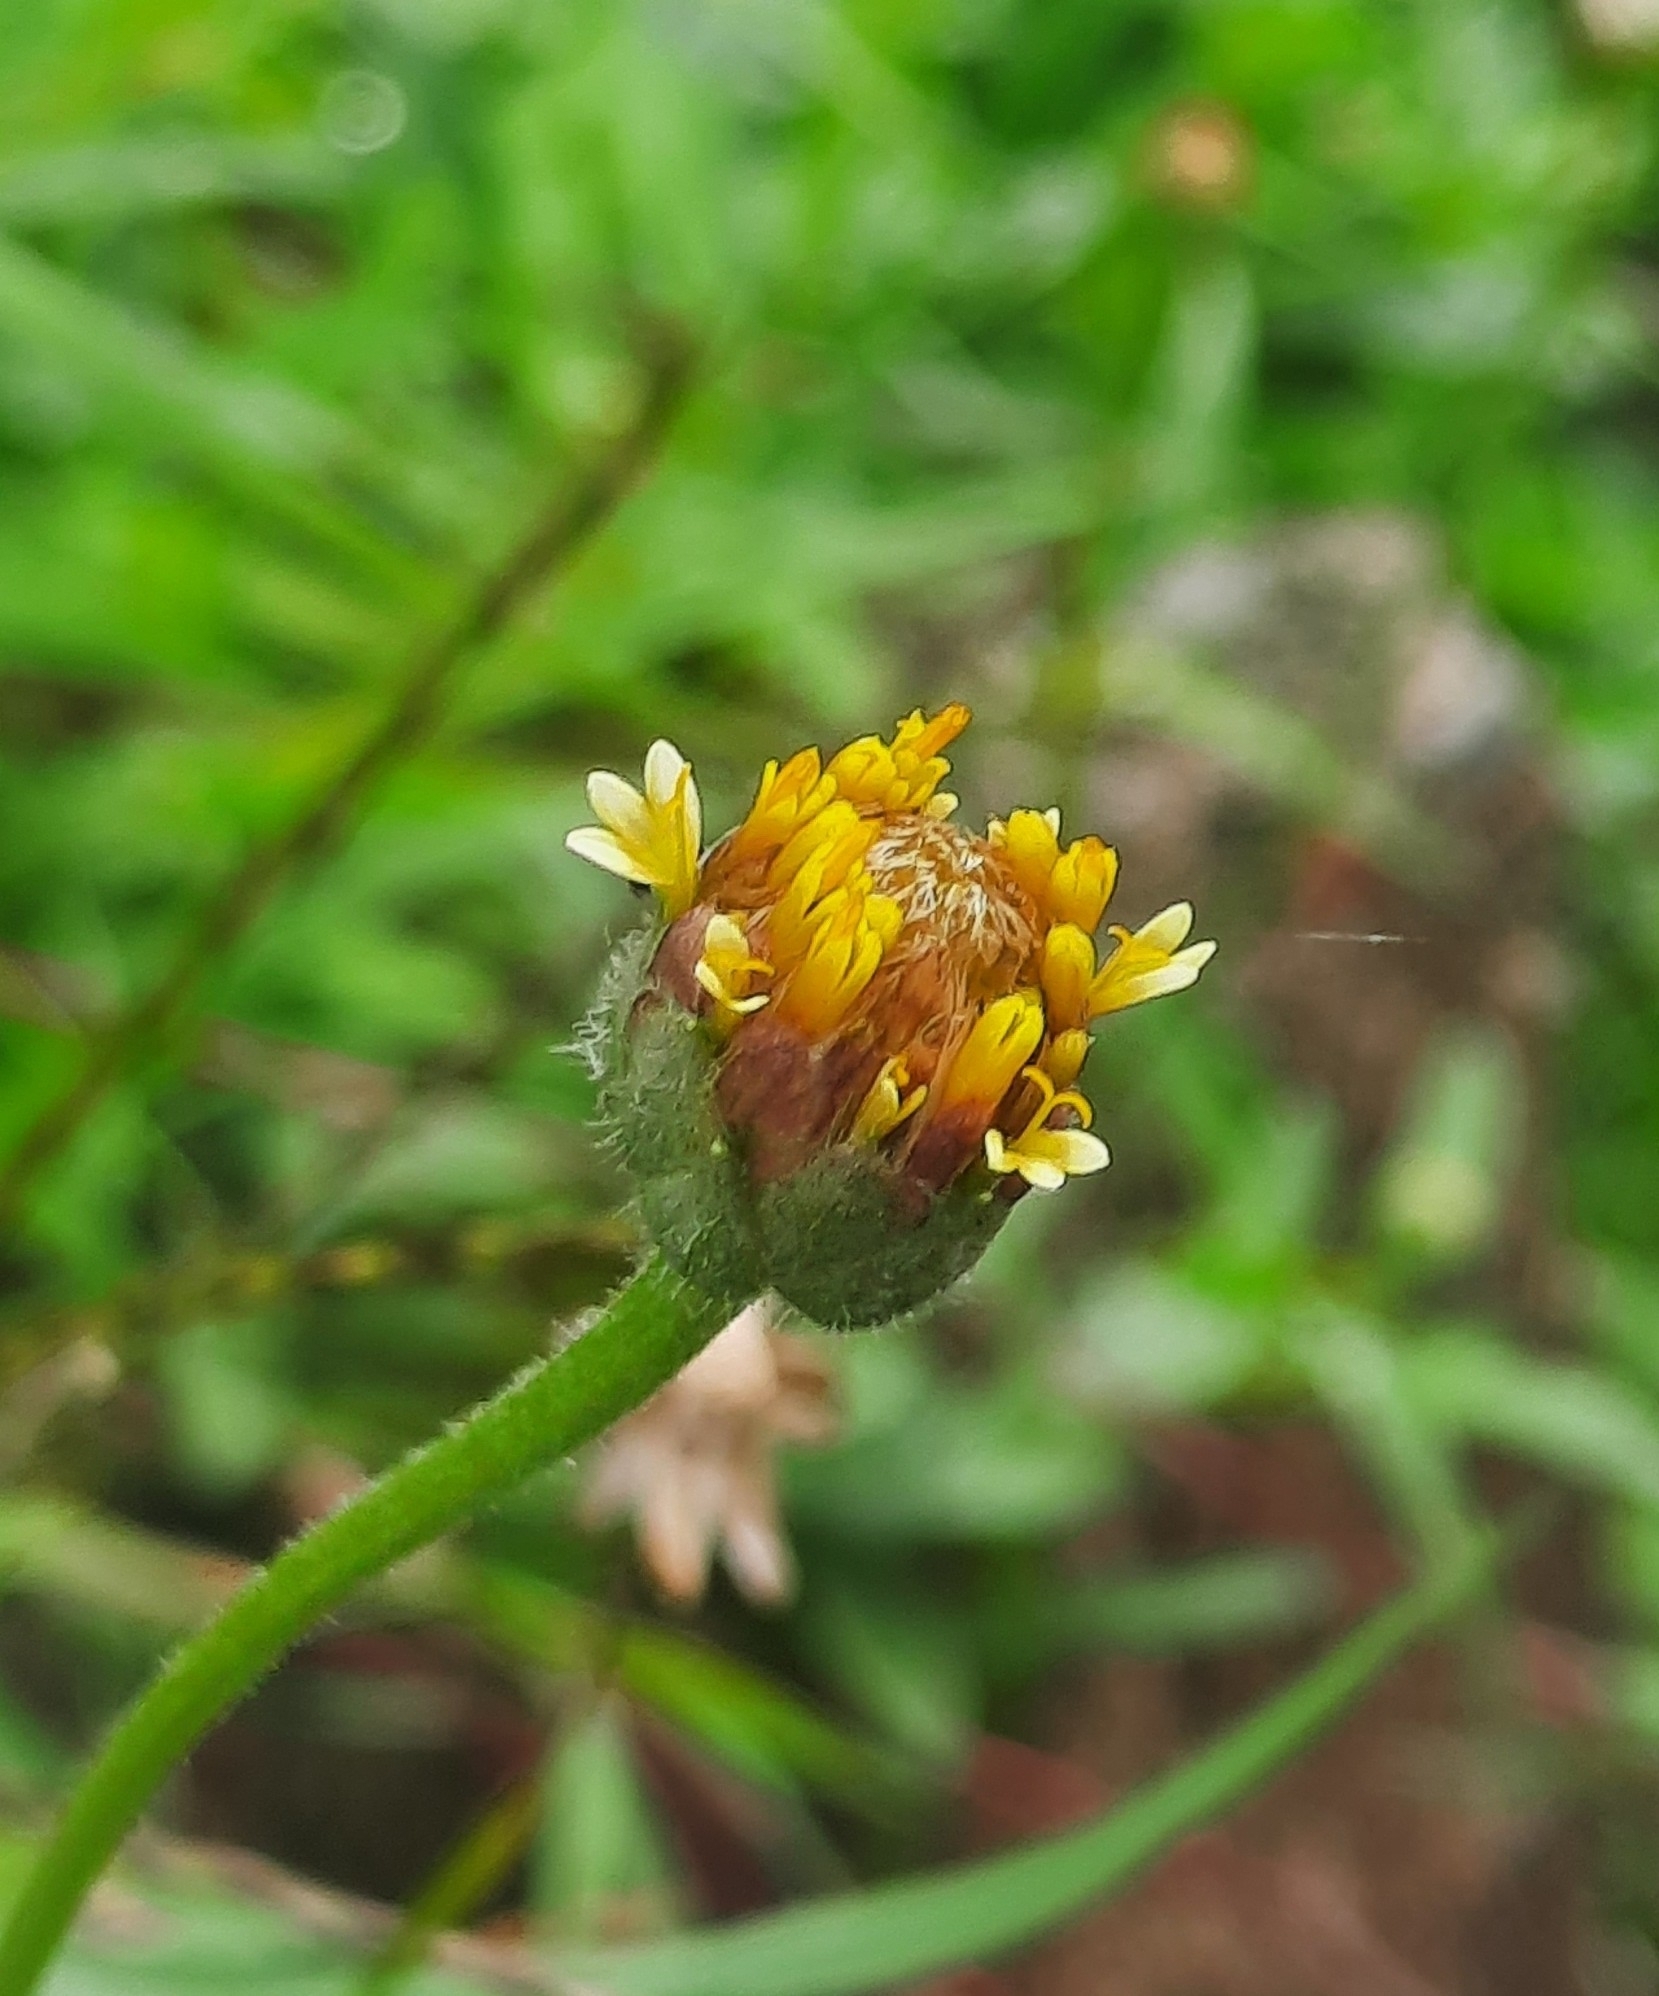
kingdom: Plantae
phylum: Tracheophyta
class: Magnoliopsida
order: Asterales
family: Asteraceae
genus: Tridax
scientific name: Tridax procumbens
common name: Coatbuttons
